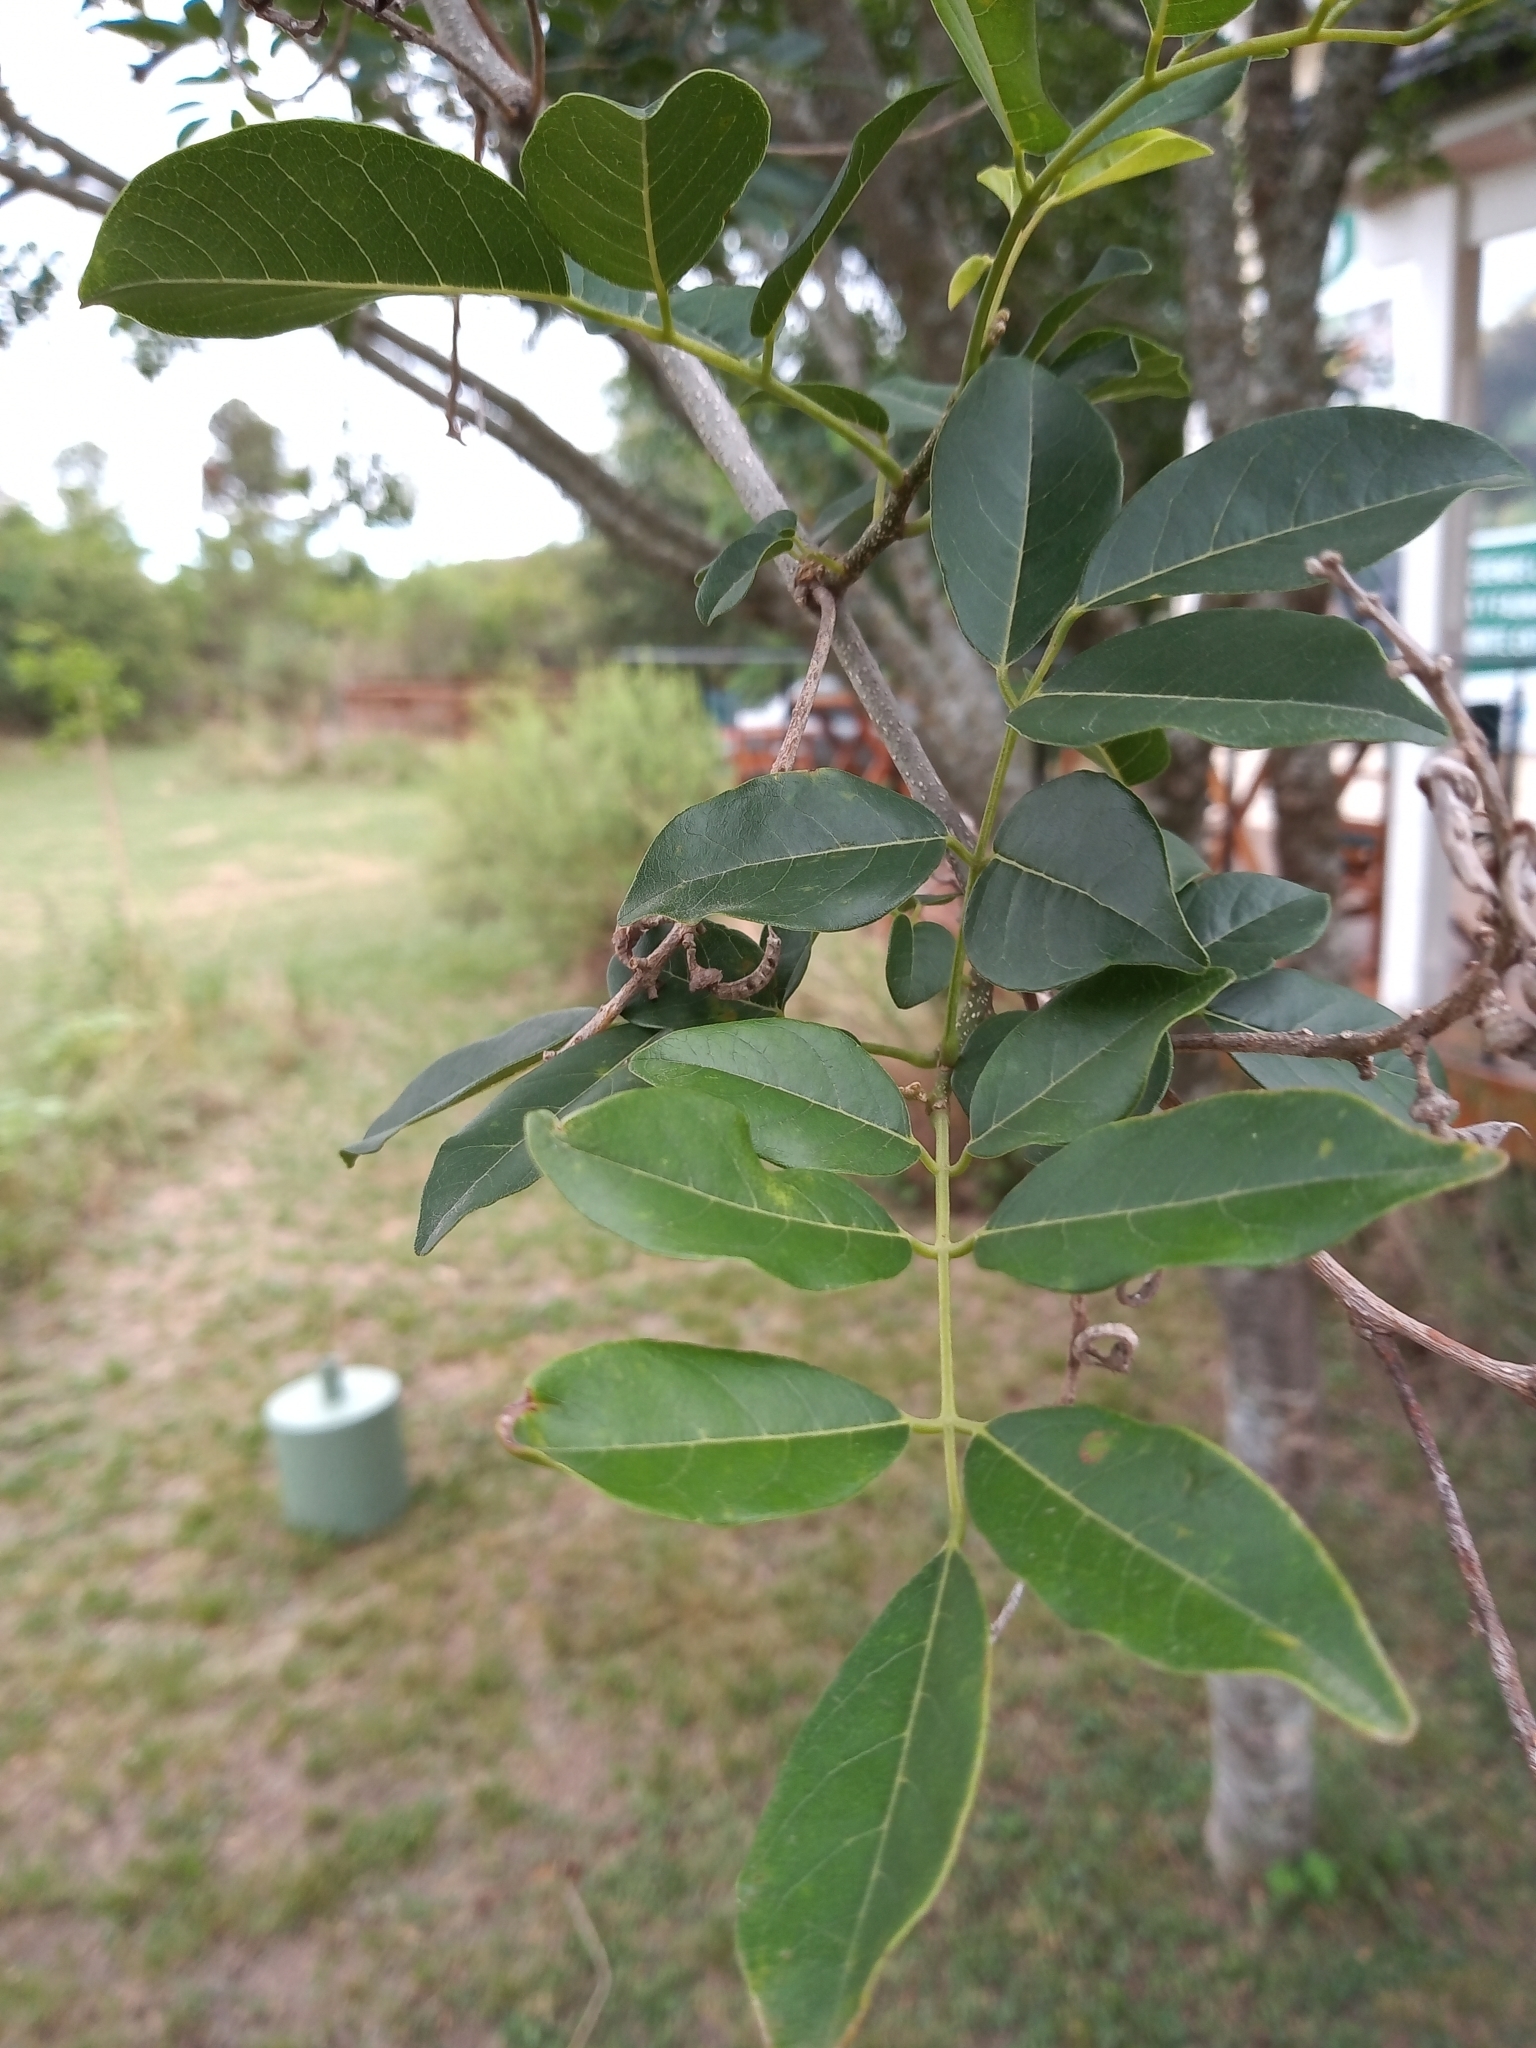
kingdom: Plantae
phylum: Tracheophyta
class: Magnoliopsida
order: Fabales
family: Fabaceae
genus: Lonchocarpus
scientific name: Lonchocarpus nitidus
